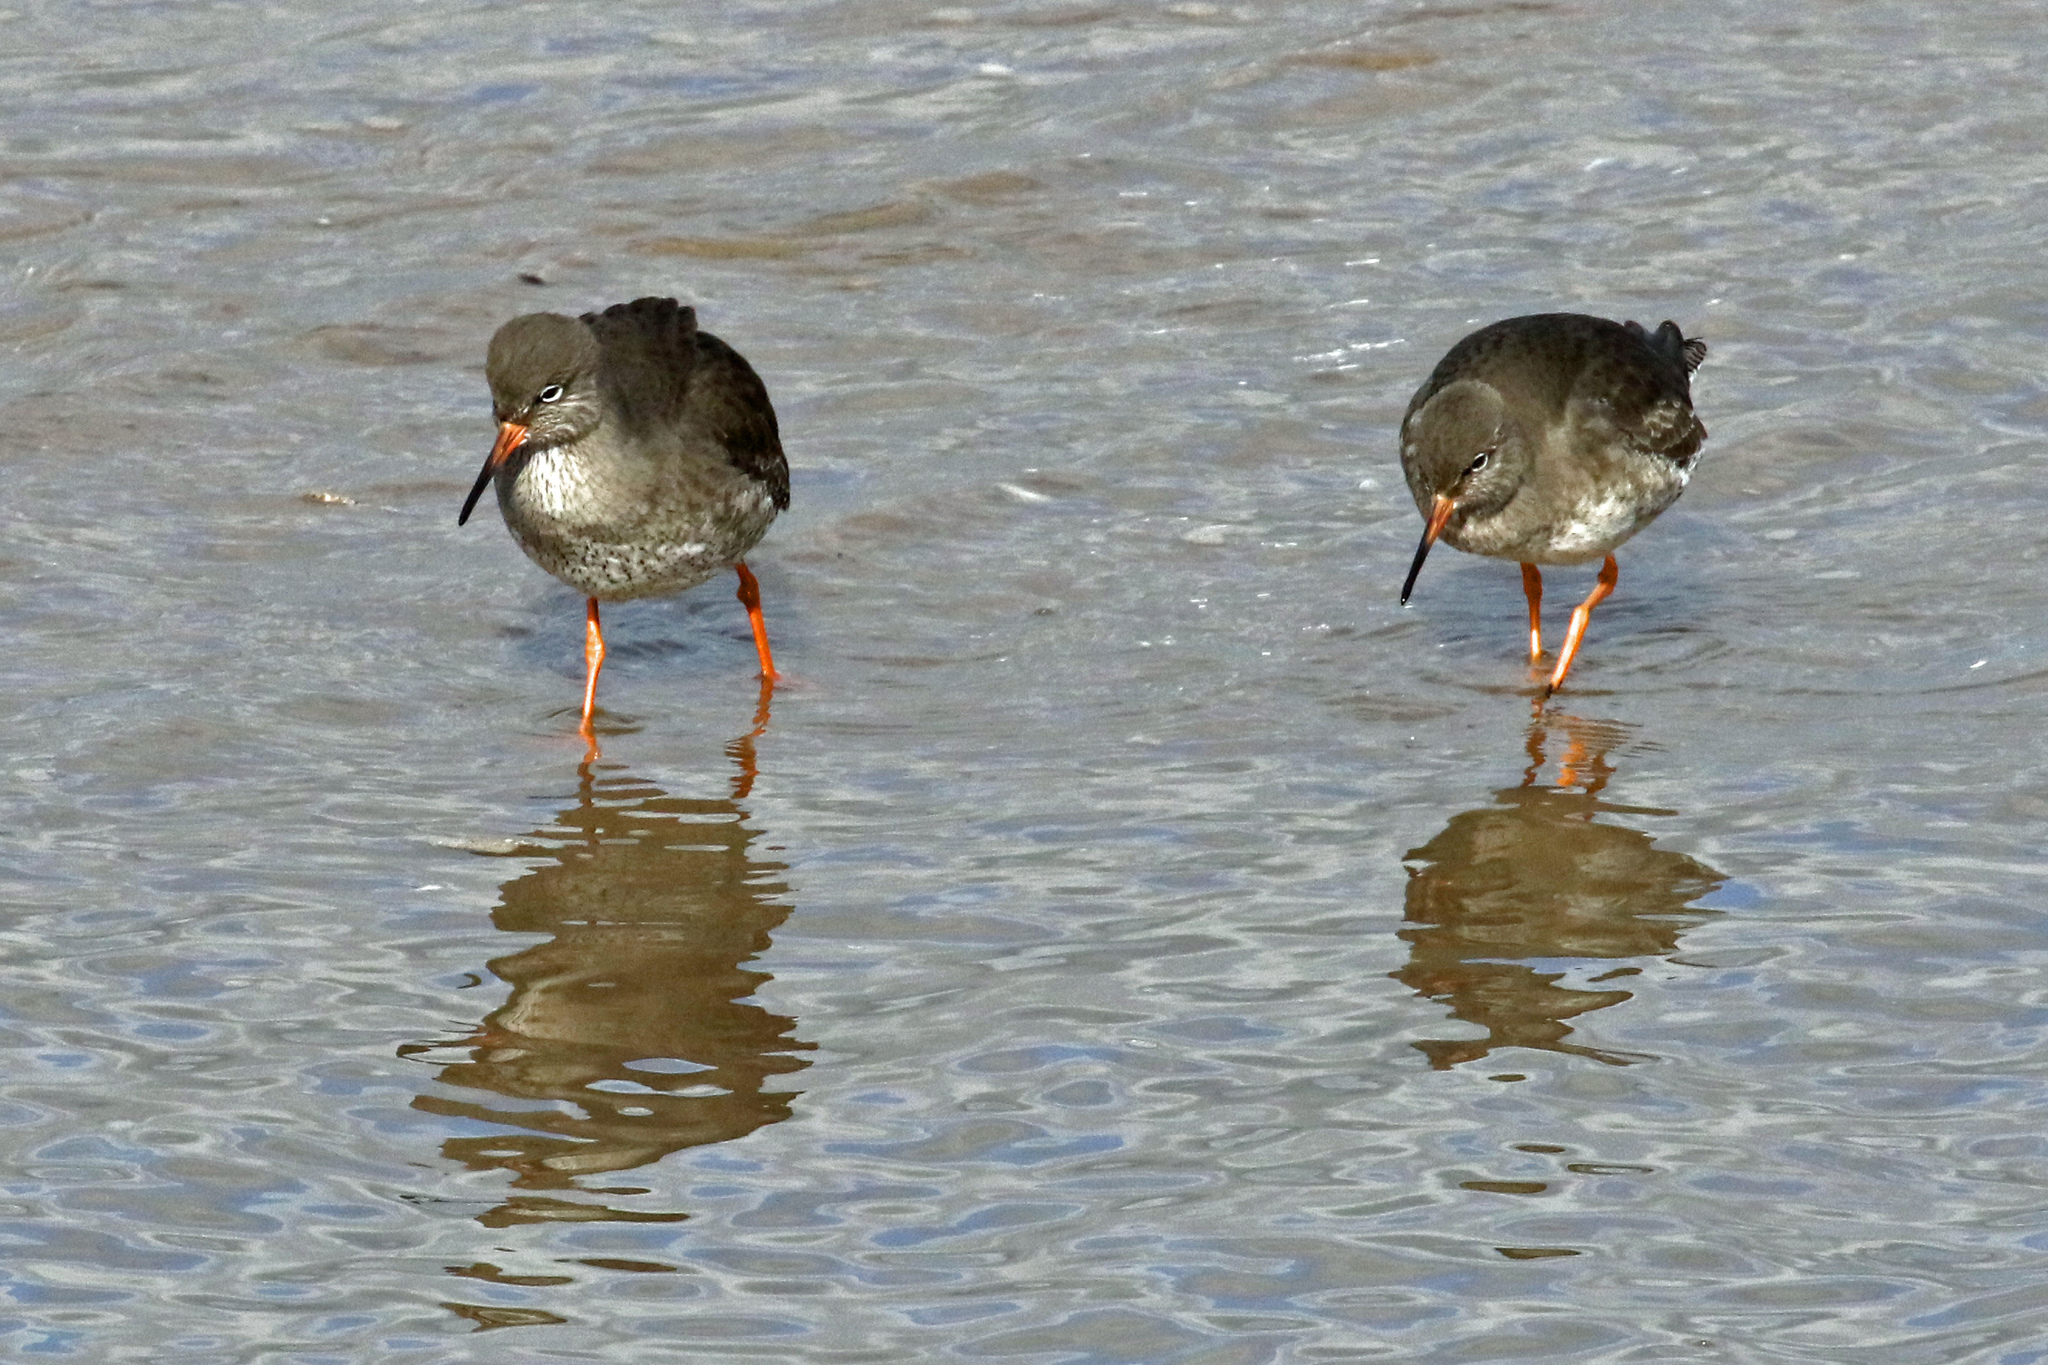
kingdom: Animalia
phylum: Chordata
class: Aves
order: Charadriiformes
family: Scolopacidae
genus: Tringa
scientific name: Tringa totanus
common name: Common redshank
